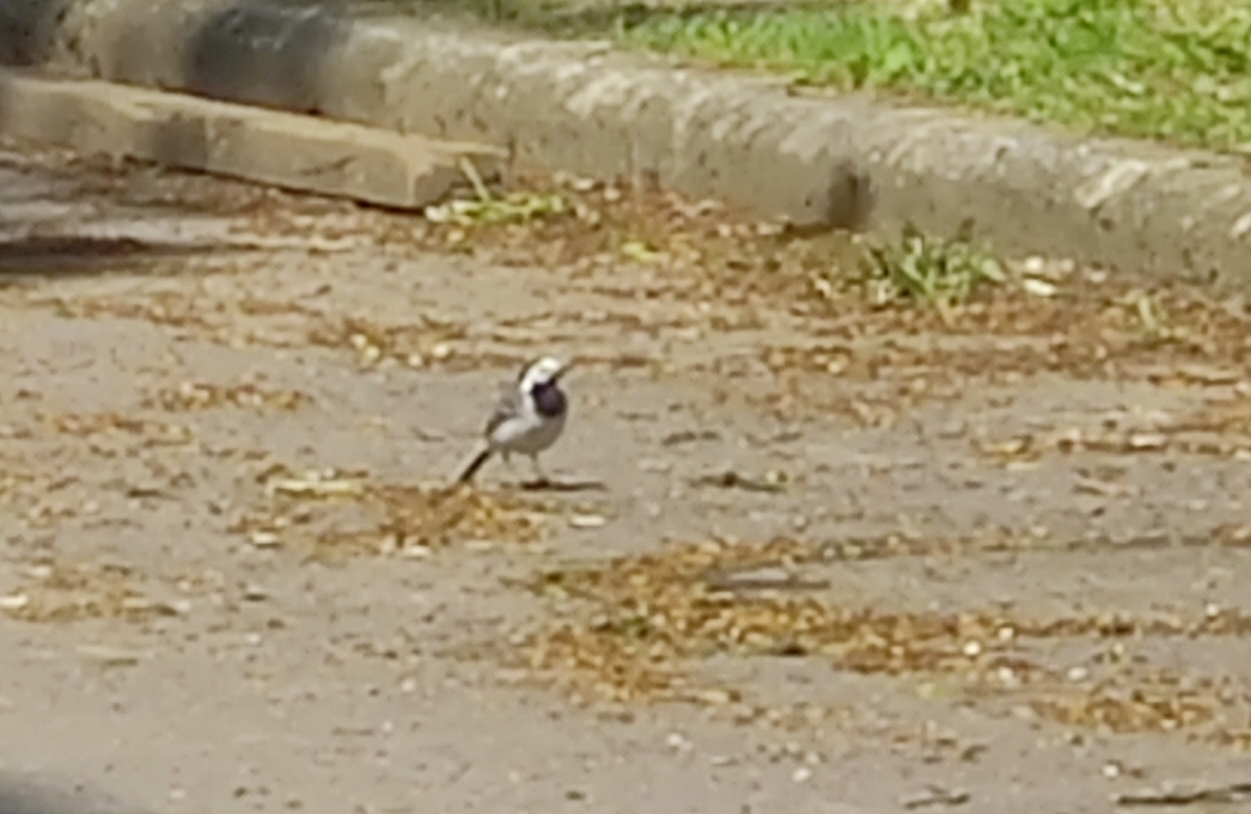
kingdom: Animalia
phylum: Chordata
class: Aves
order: Passeriformes
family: Motacillidae
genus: Motacilla
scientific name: Motacilla alba
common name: White wagtail
